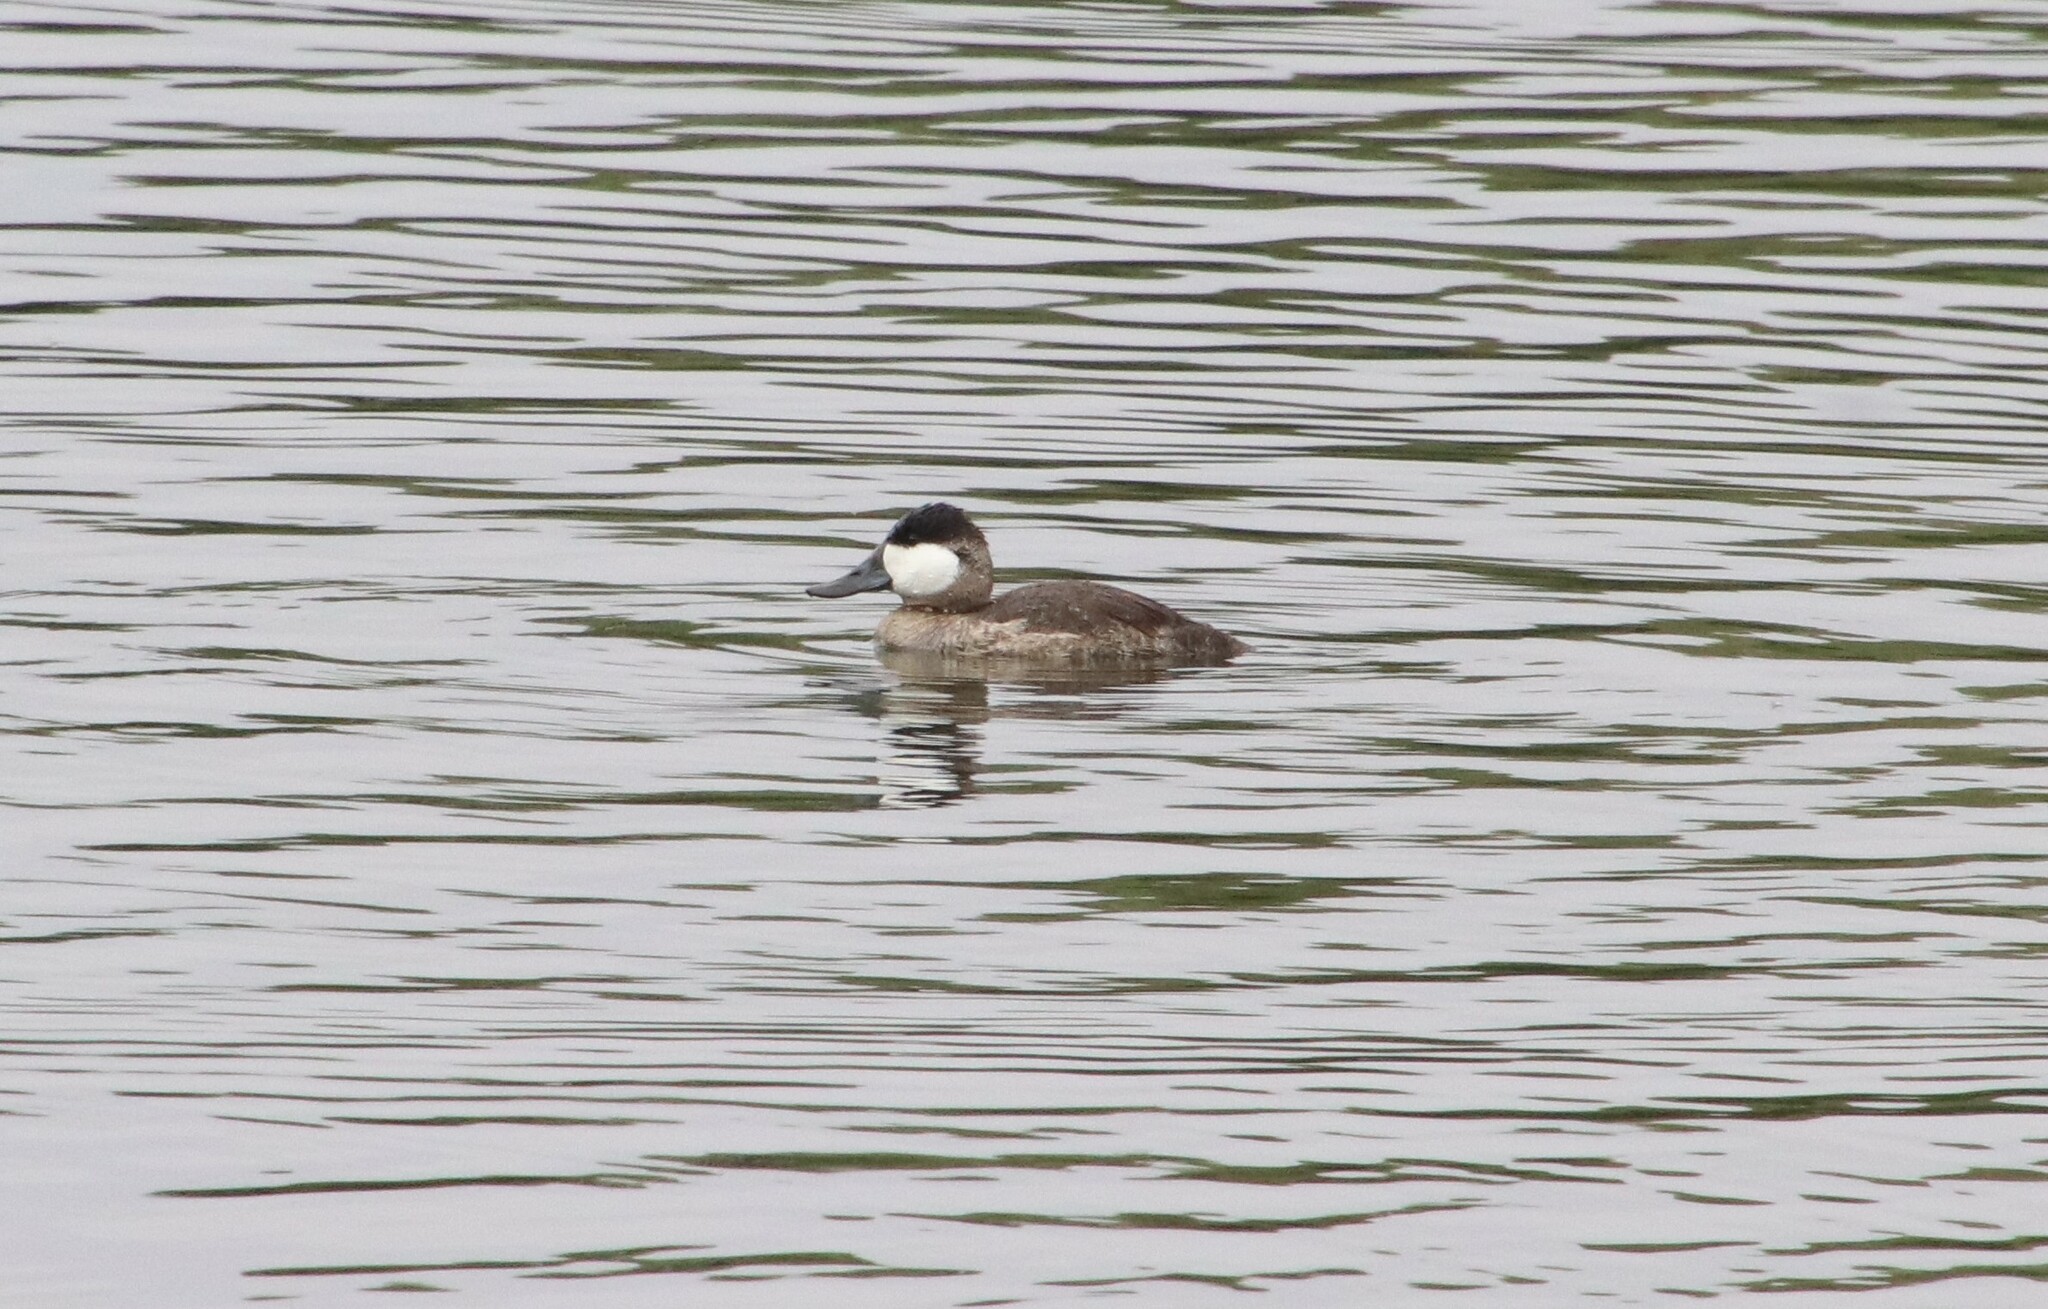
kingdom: Animalia
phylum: Chordata
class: Aves
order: Anseriformes
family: Anatidae
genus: Oxyura
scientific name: Oxyura jamaicensis
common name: Ruddy duck
